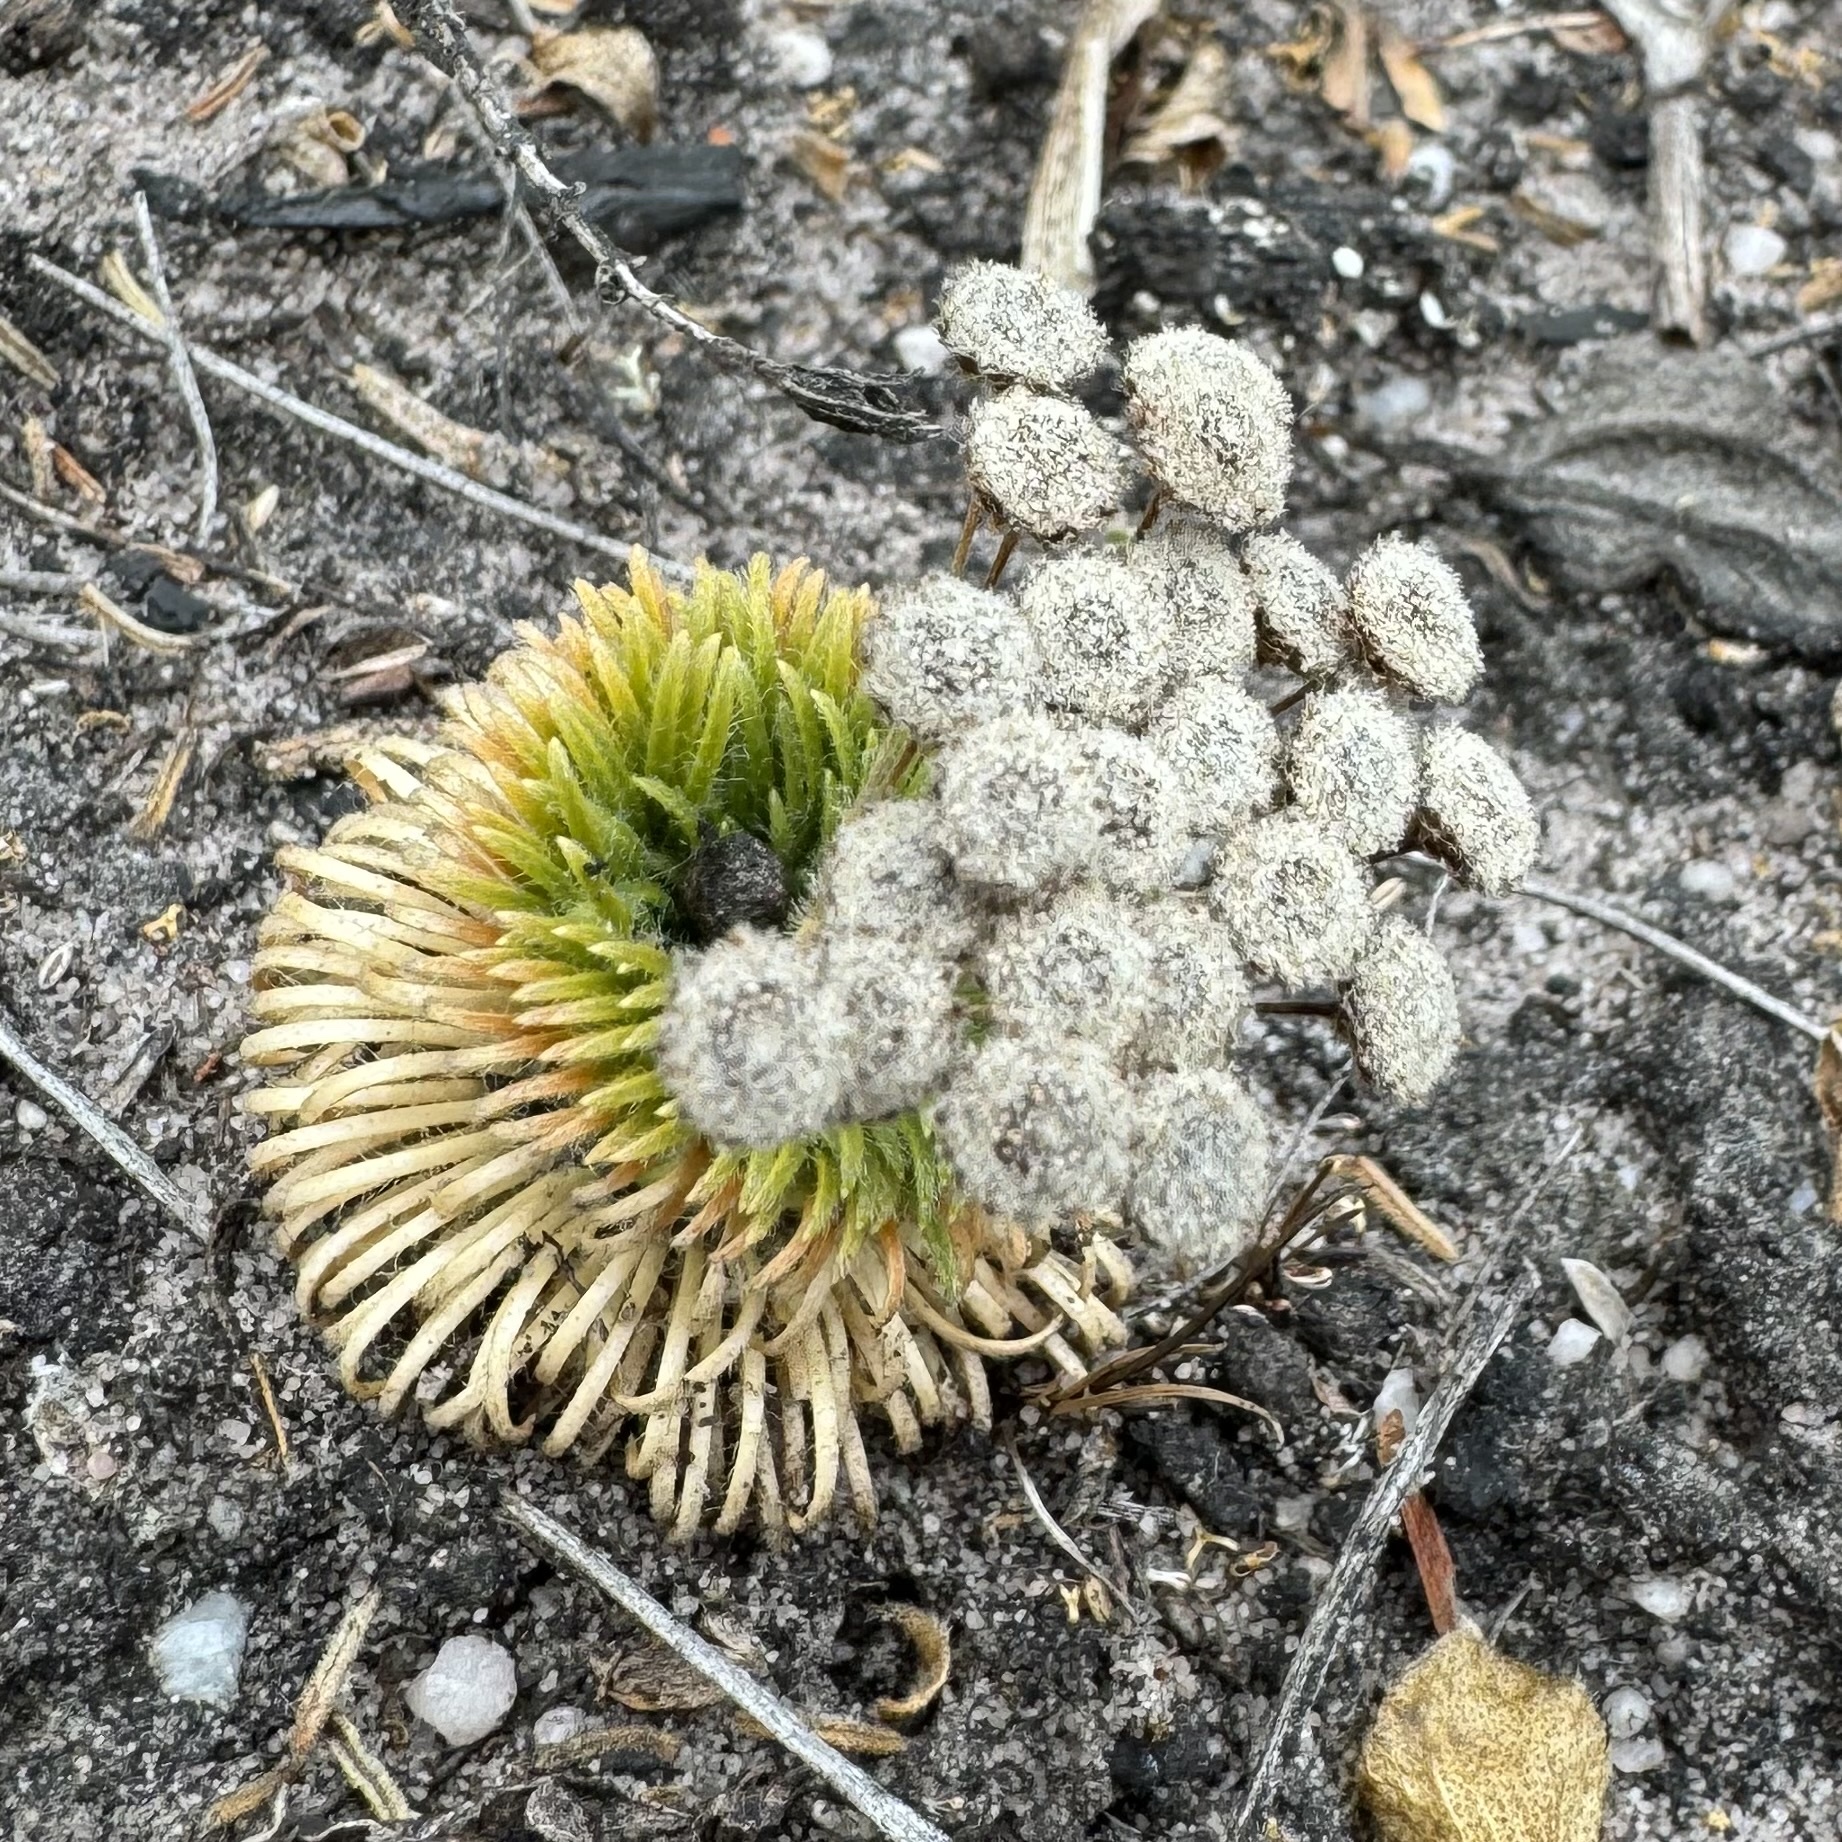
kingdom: Plantae
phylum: Tracheophyta
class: Liliopsida
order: Poales
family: Eriocaulaceae
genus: Paepalanthus
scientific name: Paepalanthus pulvinatus
